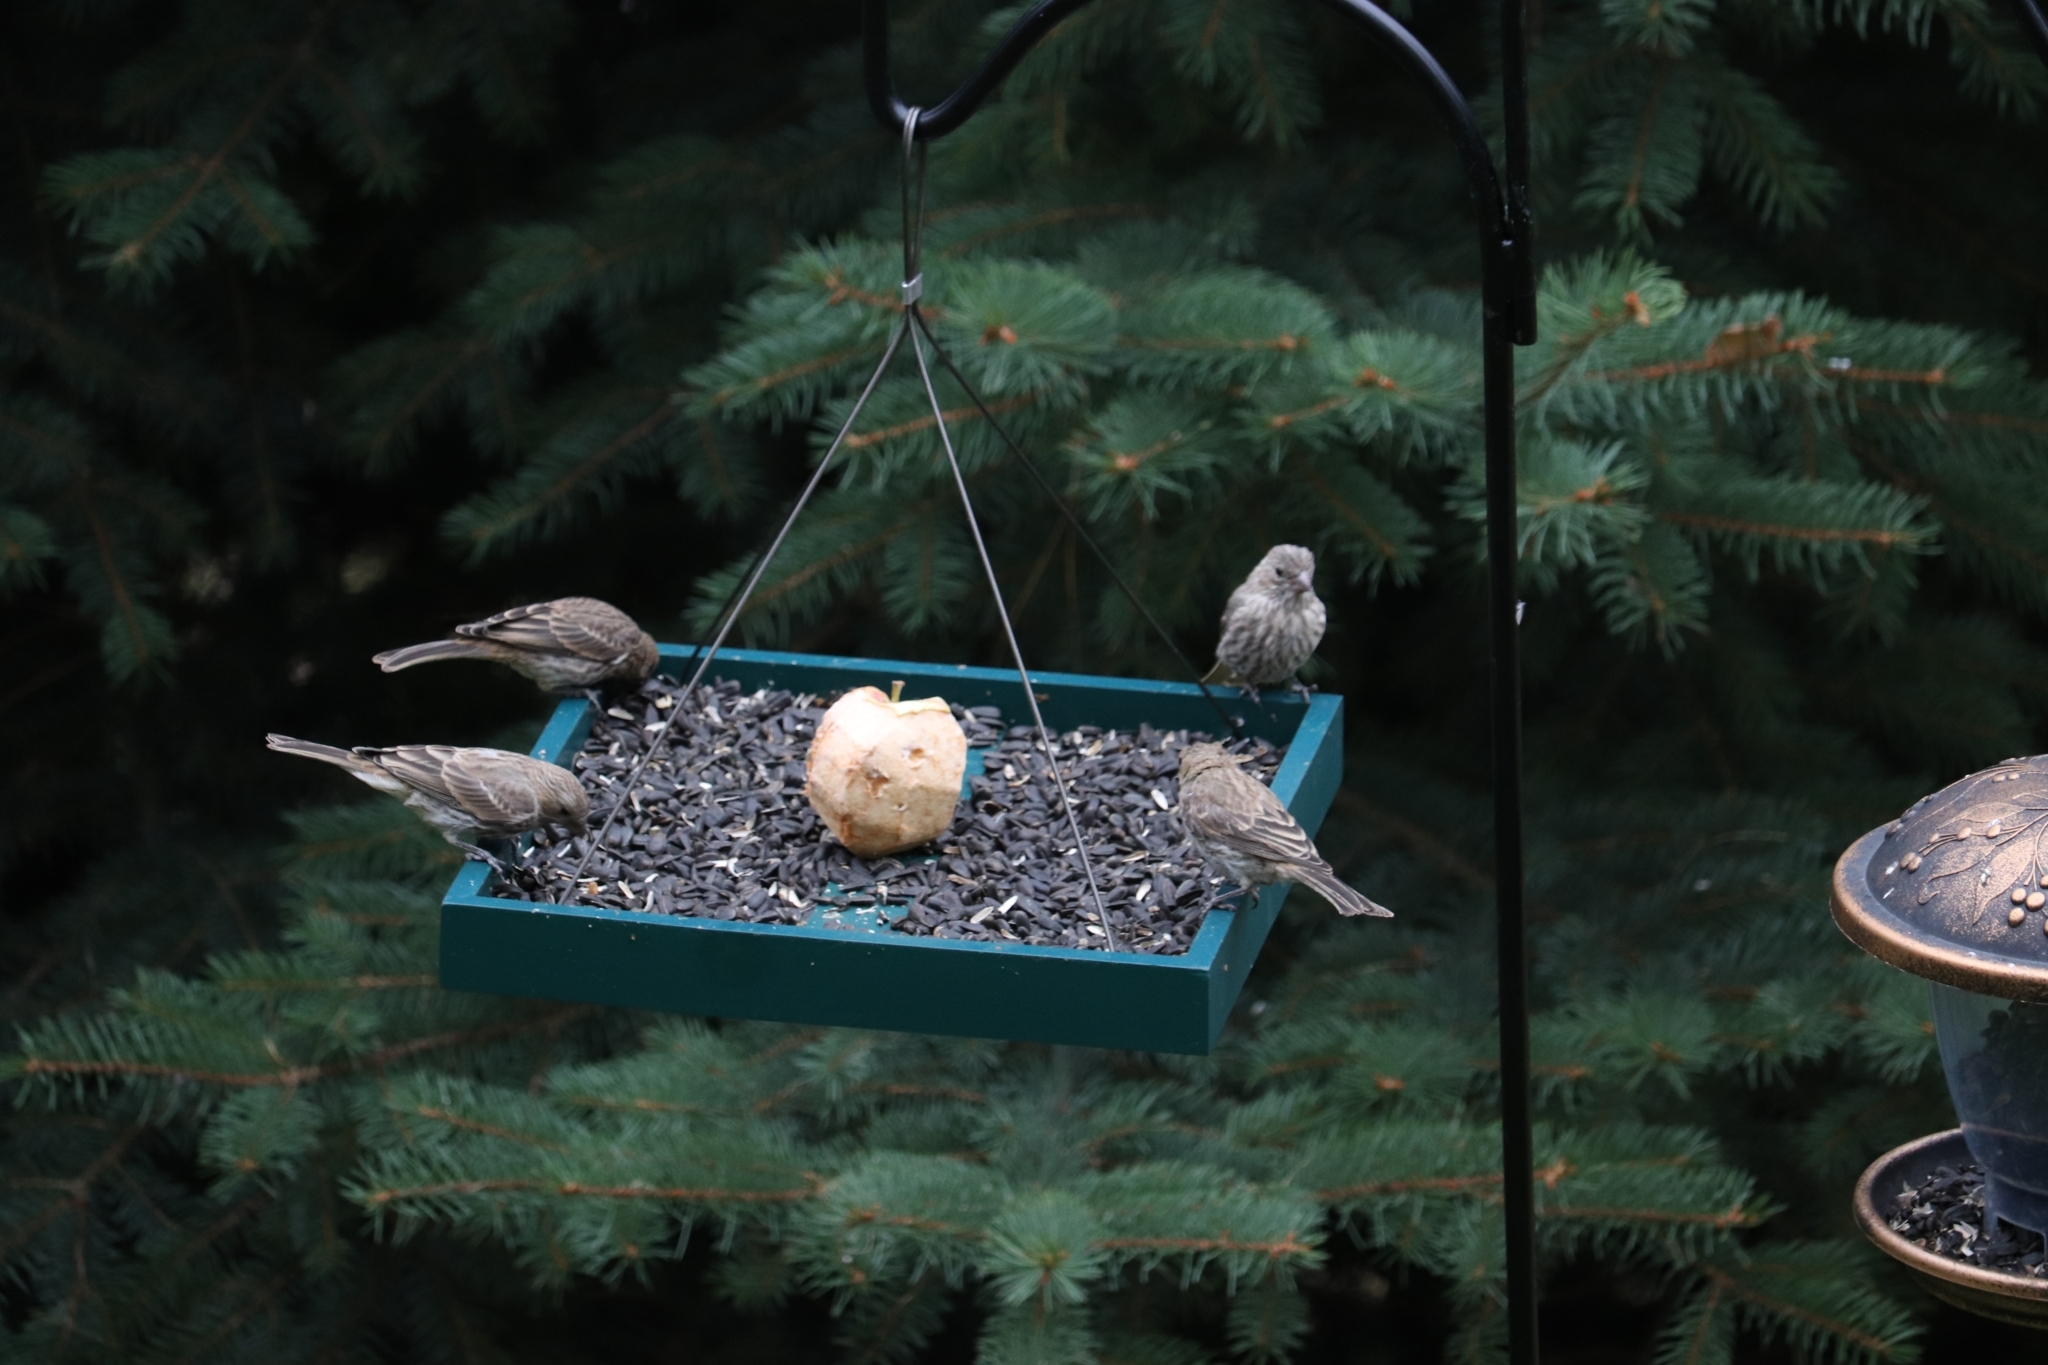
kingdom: Animalia
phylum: Chordata
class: Aves
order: Passeriformes
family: Fringillidae
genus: Haemorhous
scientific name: Haemorhous mexicanus
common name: House finch
